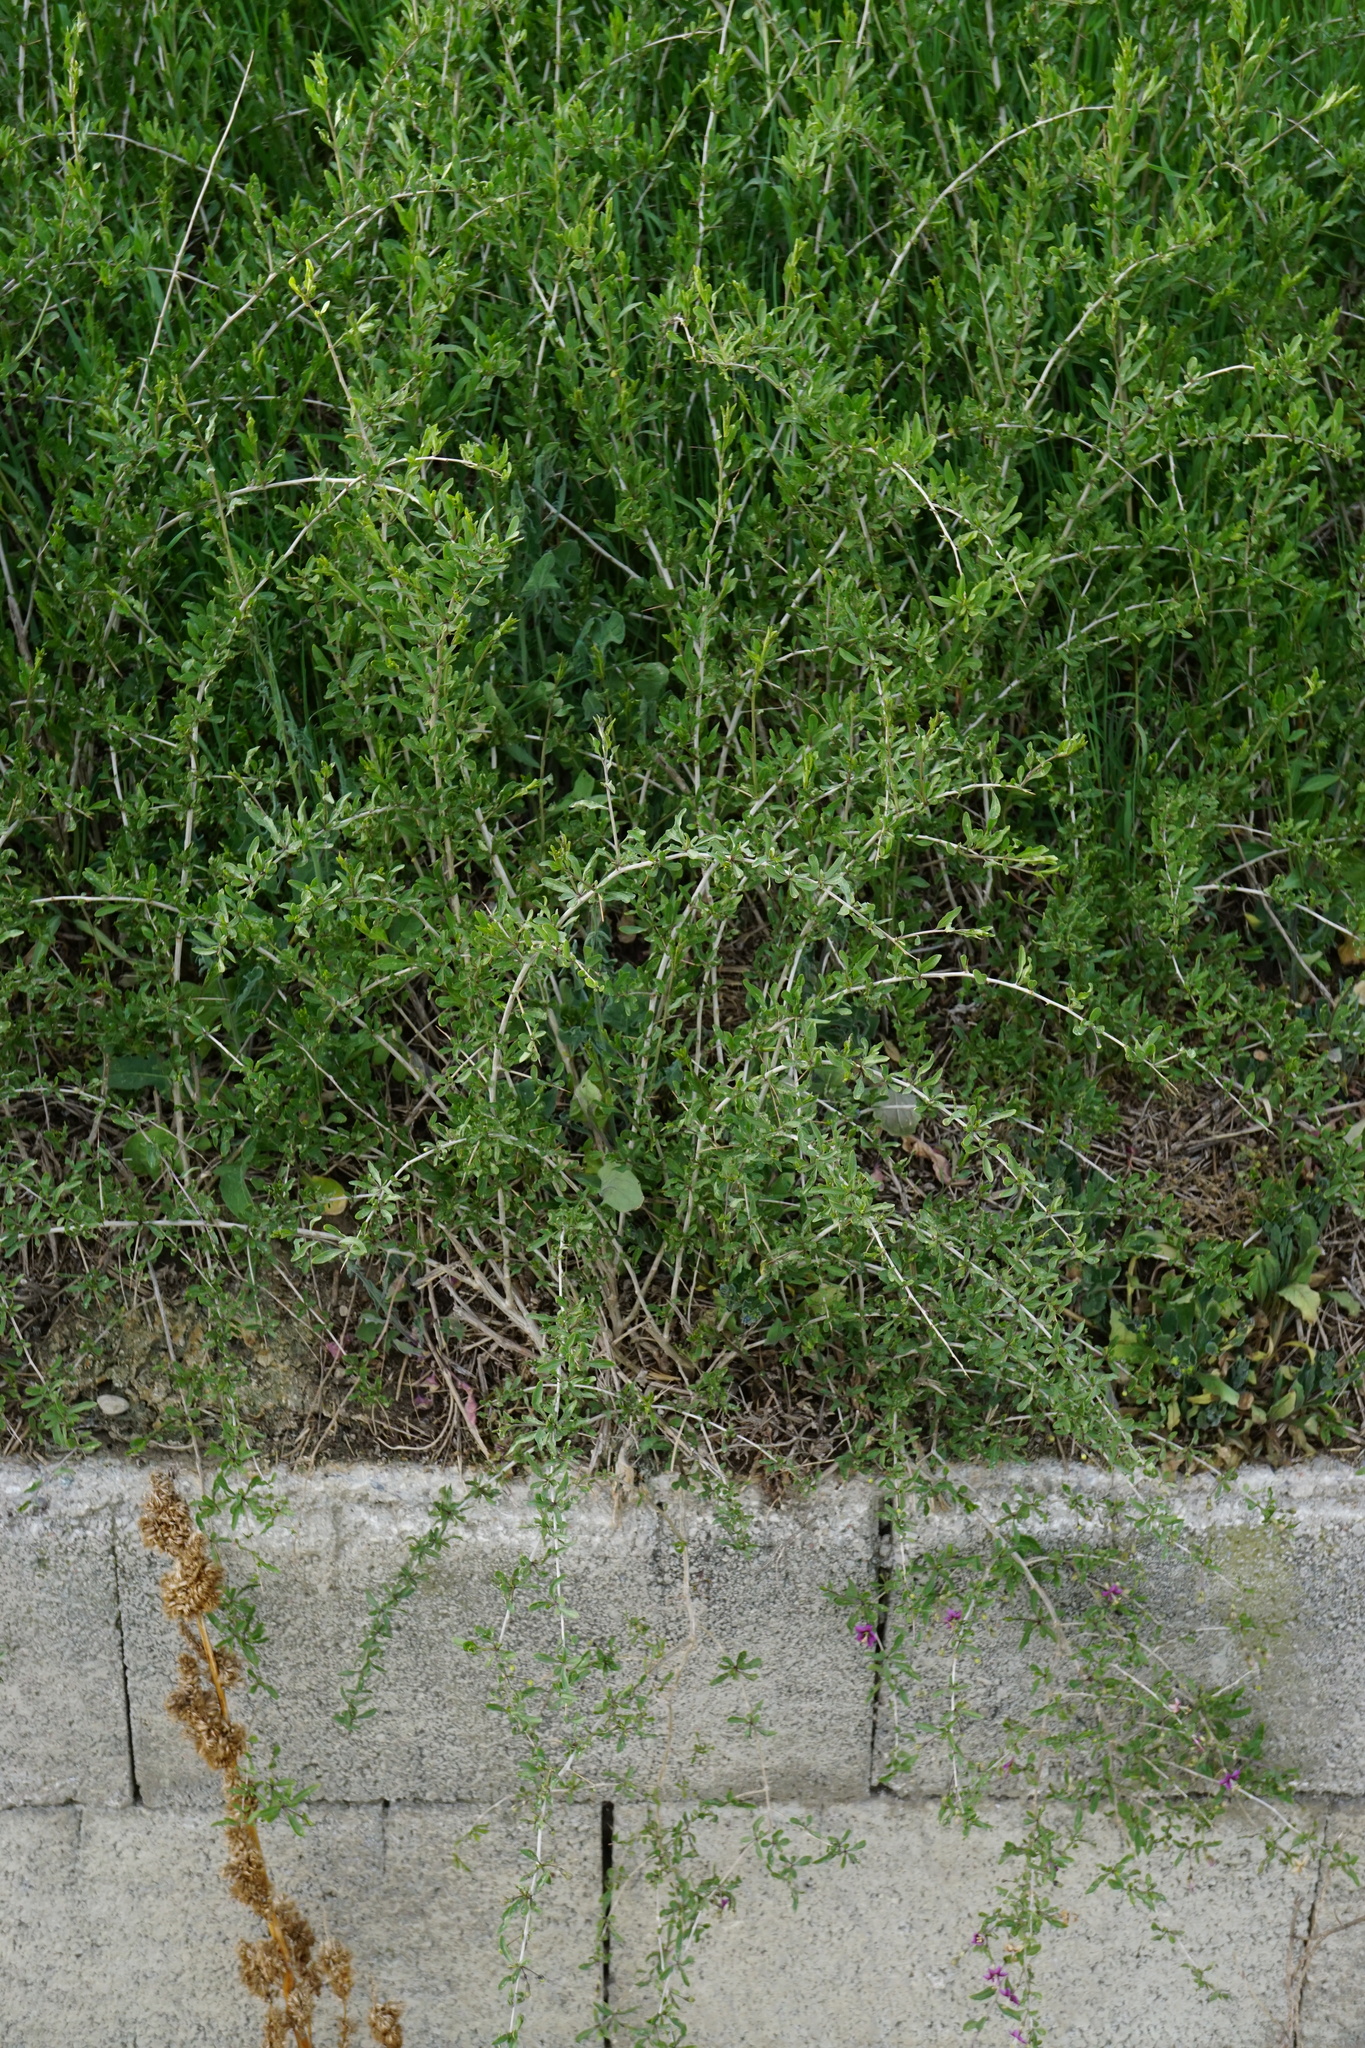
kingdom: Plantae
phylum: Tracheophyta
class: Magnoliopsida
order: Solanales
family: Solanaceae
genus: Lycium
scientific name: Lycium barbarum
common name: Duke of argyll's teaplant
